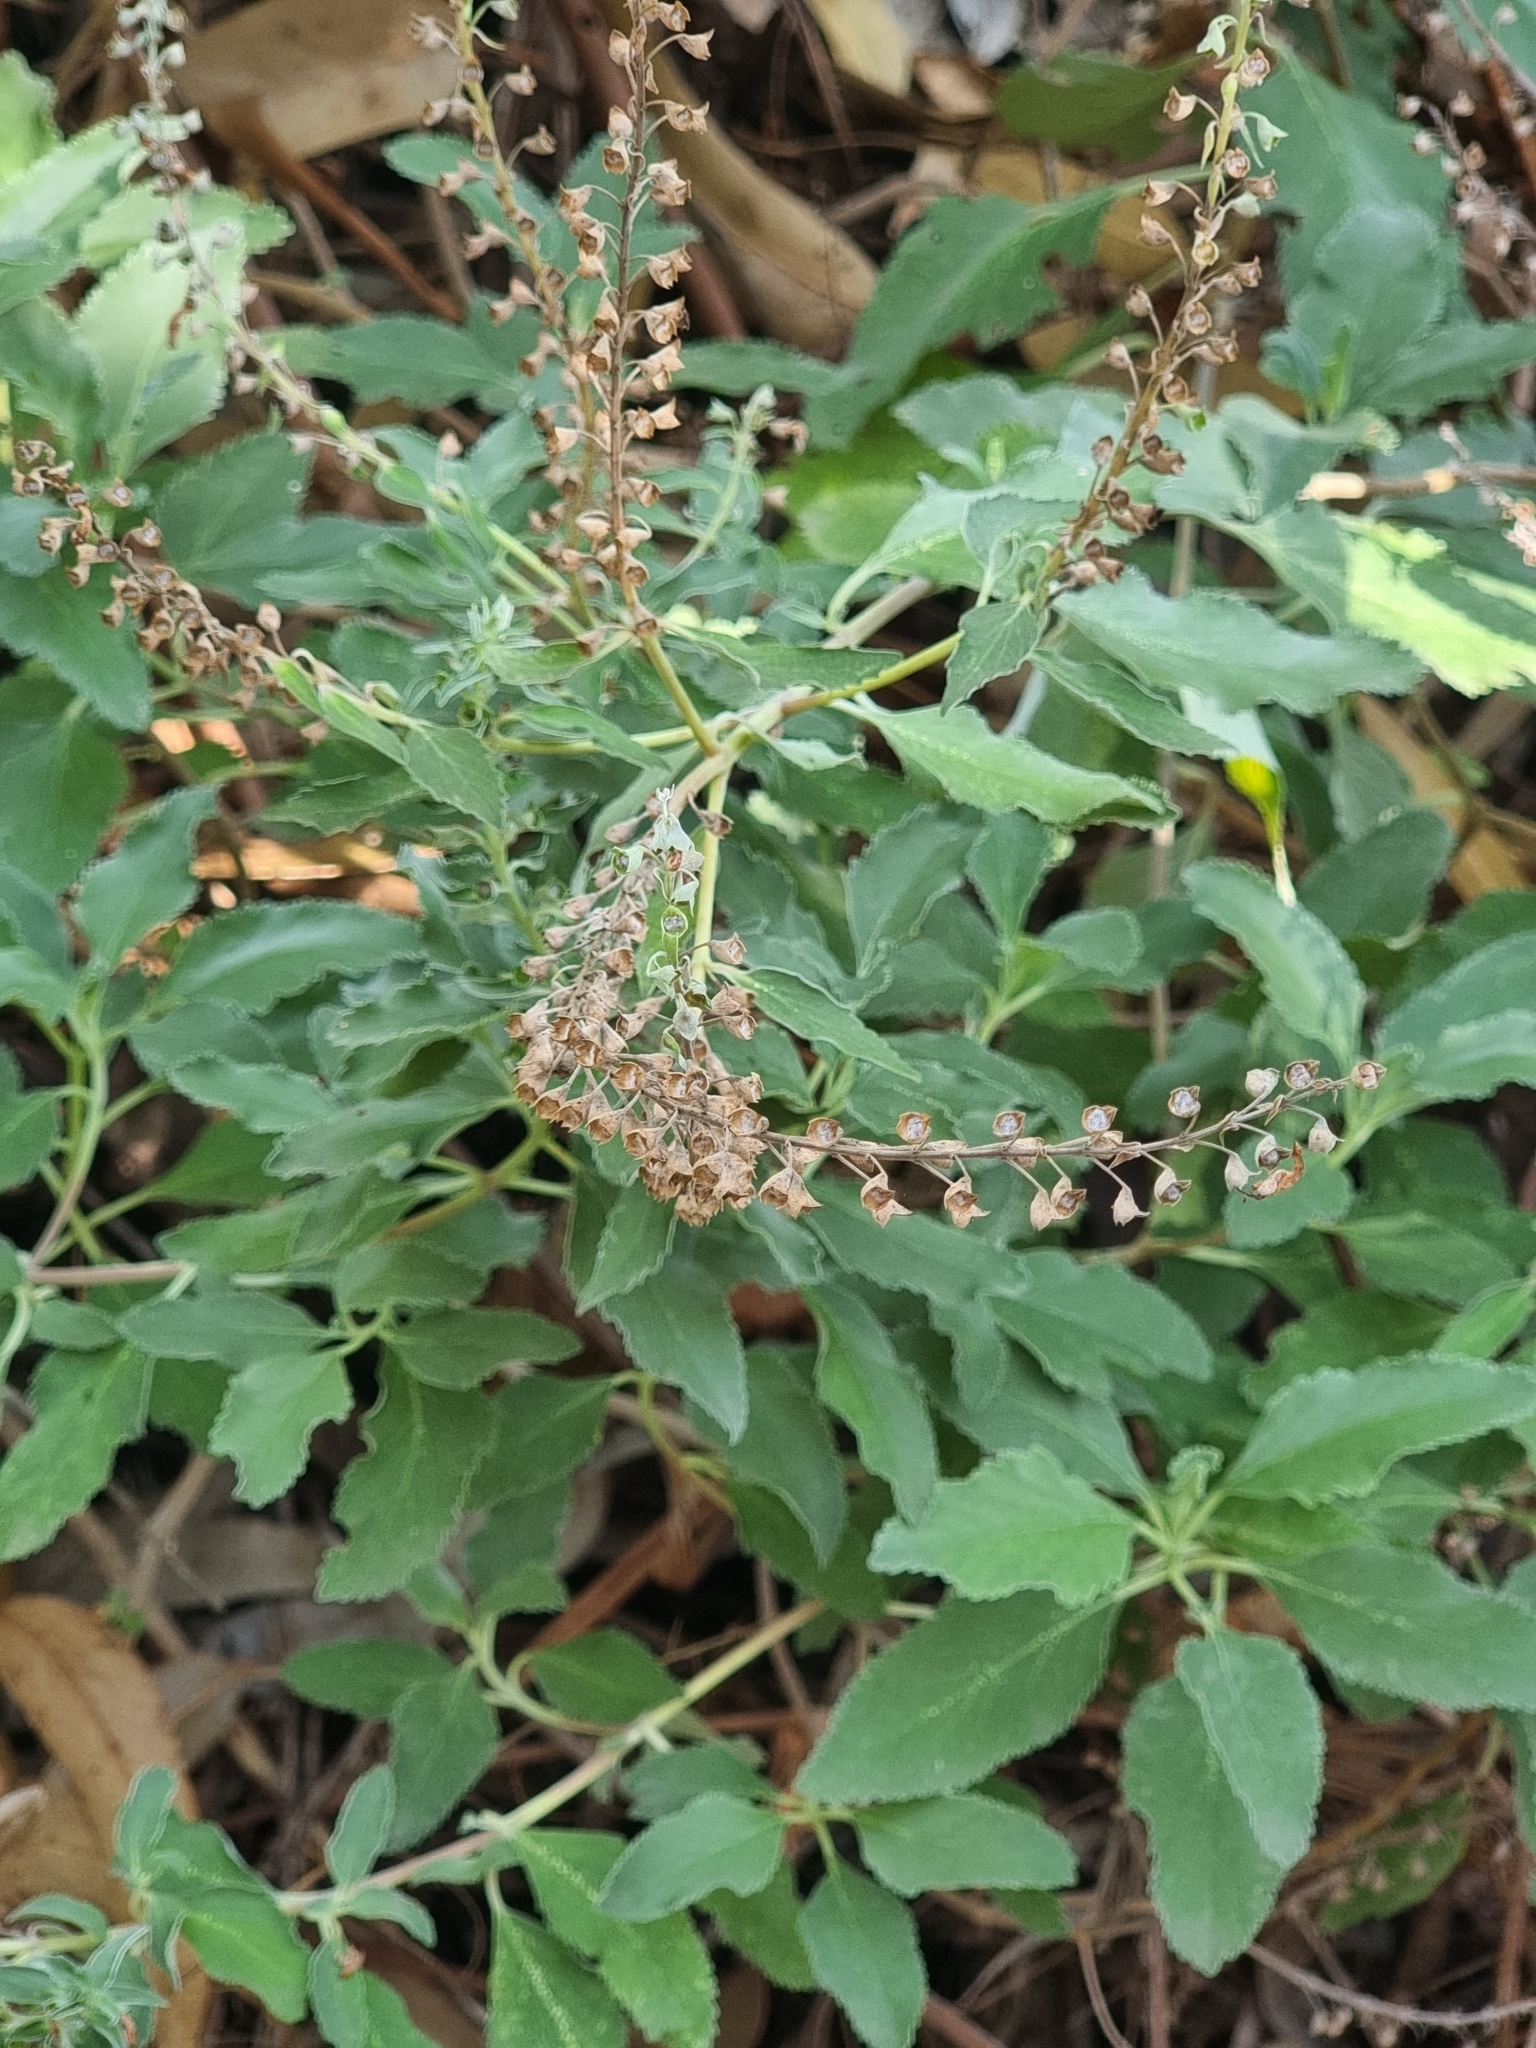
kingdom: Plantae
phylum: Tracheophyta
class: Magnoliopsida
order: Lamiales
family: Lamiaceae
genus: Teucrium
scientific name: Teucrium betonicum
